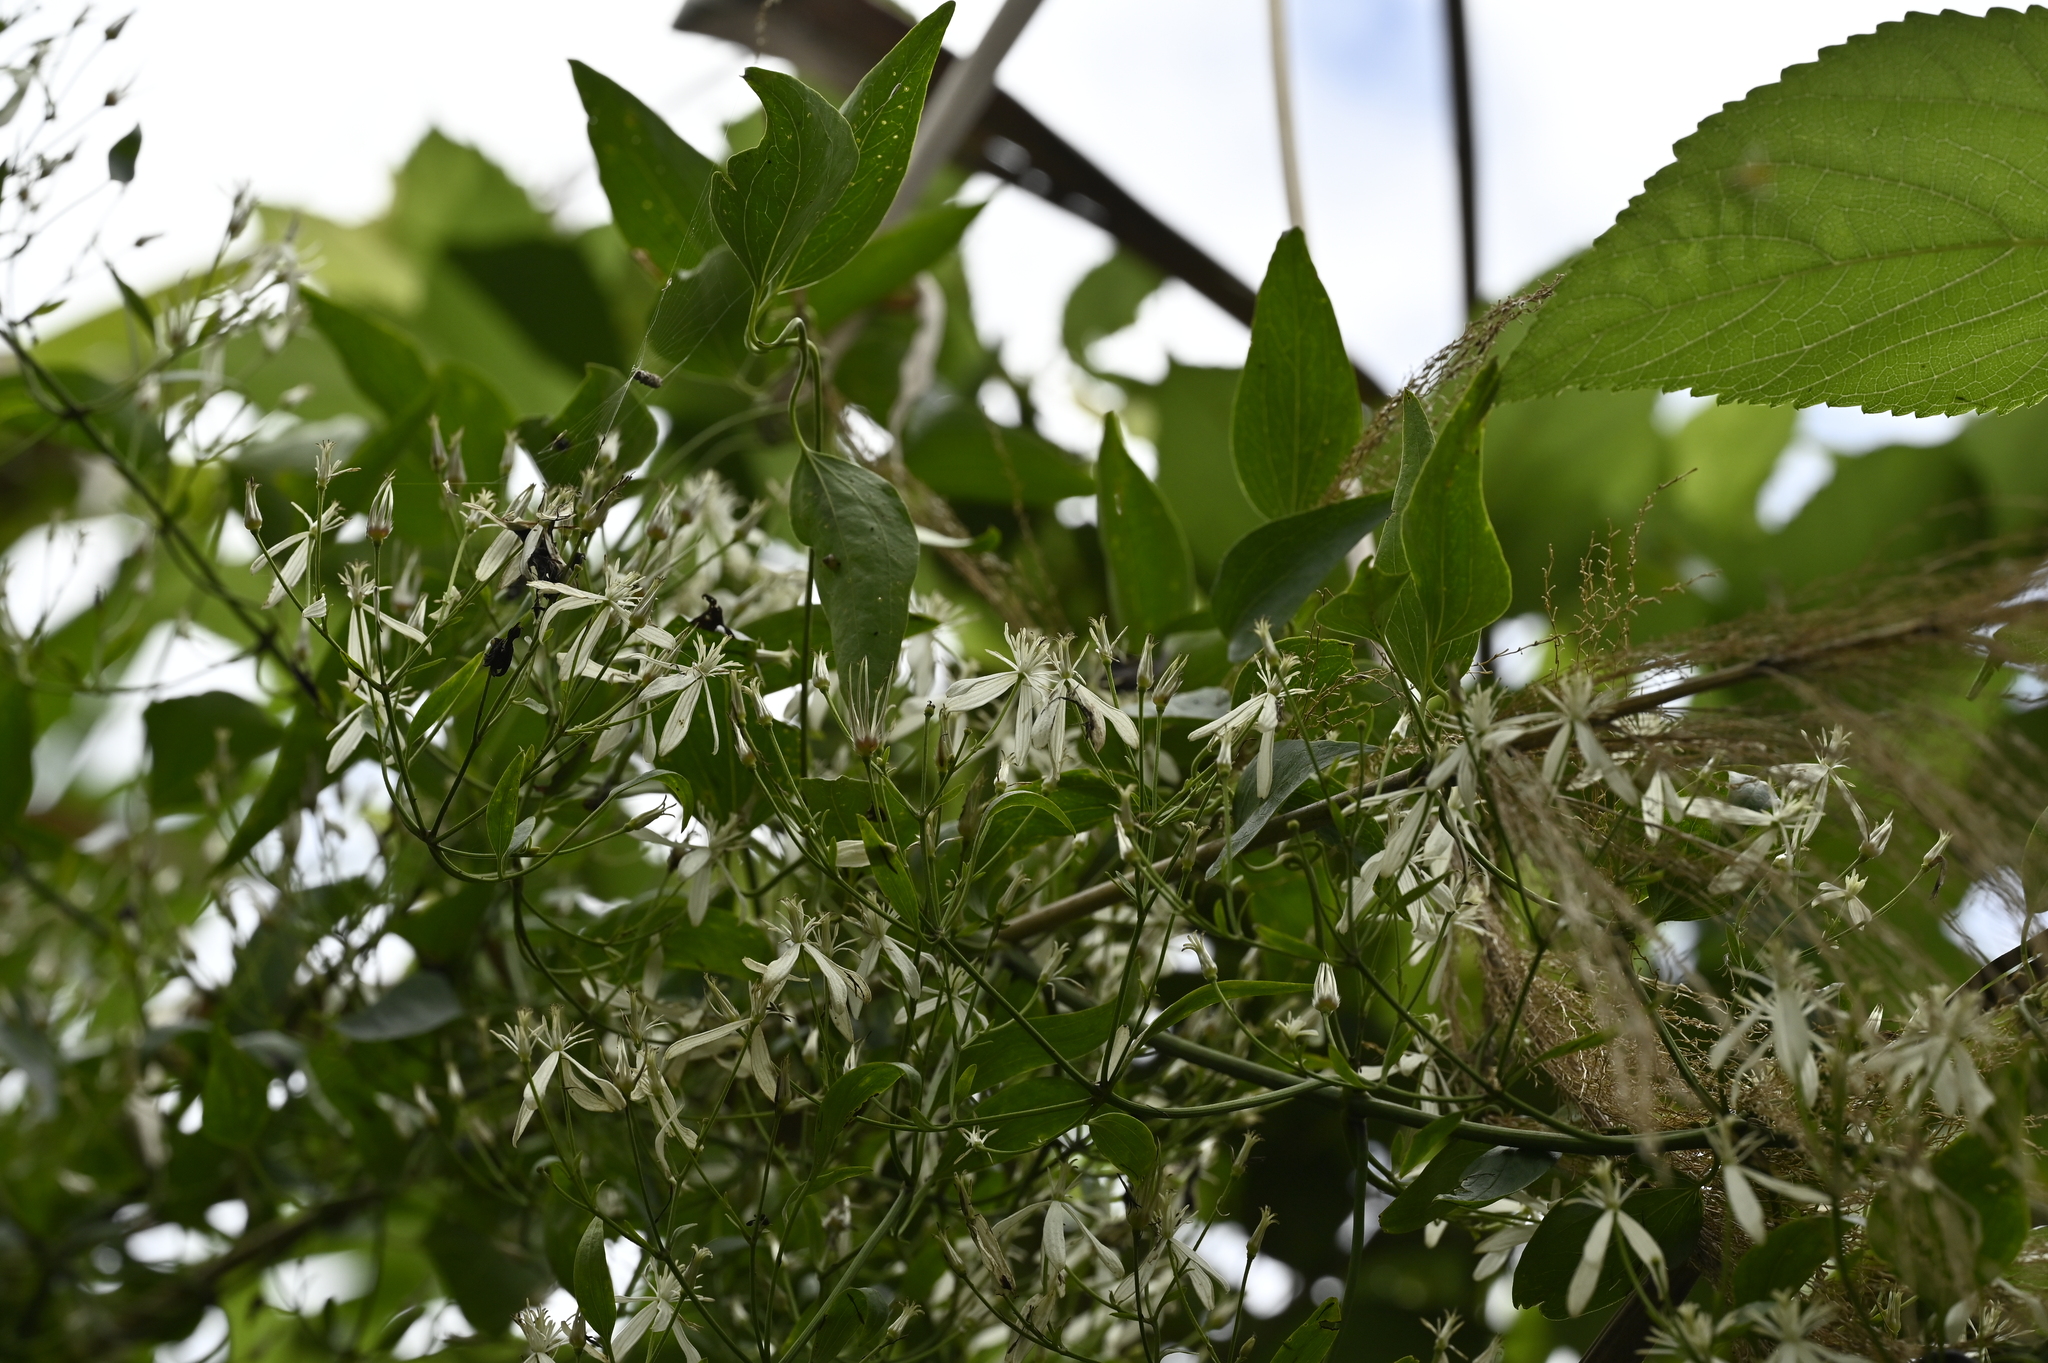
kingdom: Plantae
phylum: Tracheophyta
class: Magnoliopsida
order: Ranunculales
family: Ranunculaceae
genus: Clematis
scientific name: Clematis meyeniana
